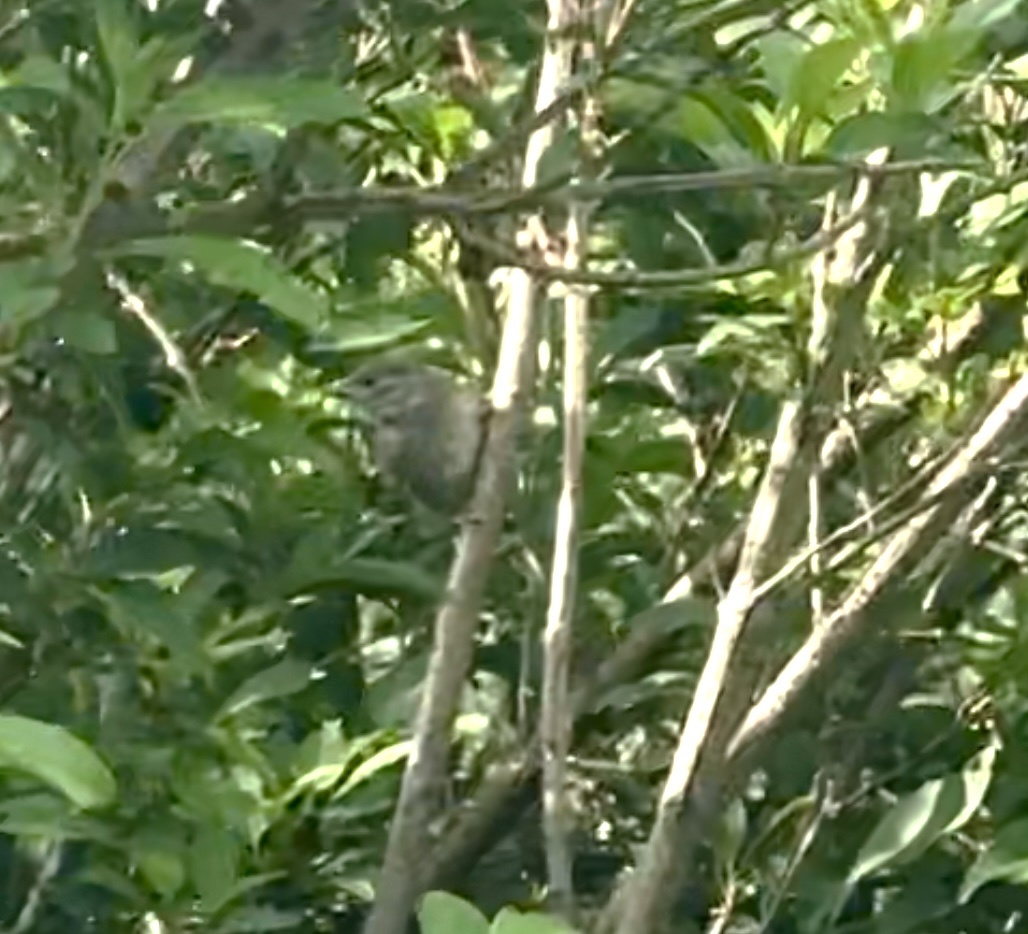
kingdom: Animalia
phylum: Chordata
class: Aves
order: Passeriformes
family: Sylviidae
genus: Sylvia
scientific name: Sylvia atricapilla
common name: Eurasian blackcap
